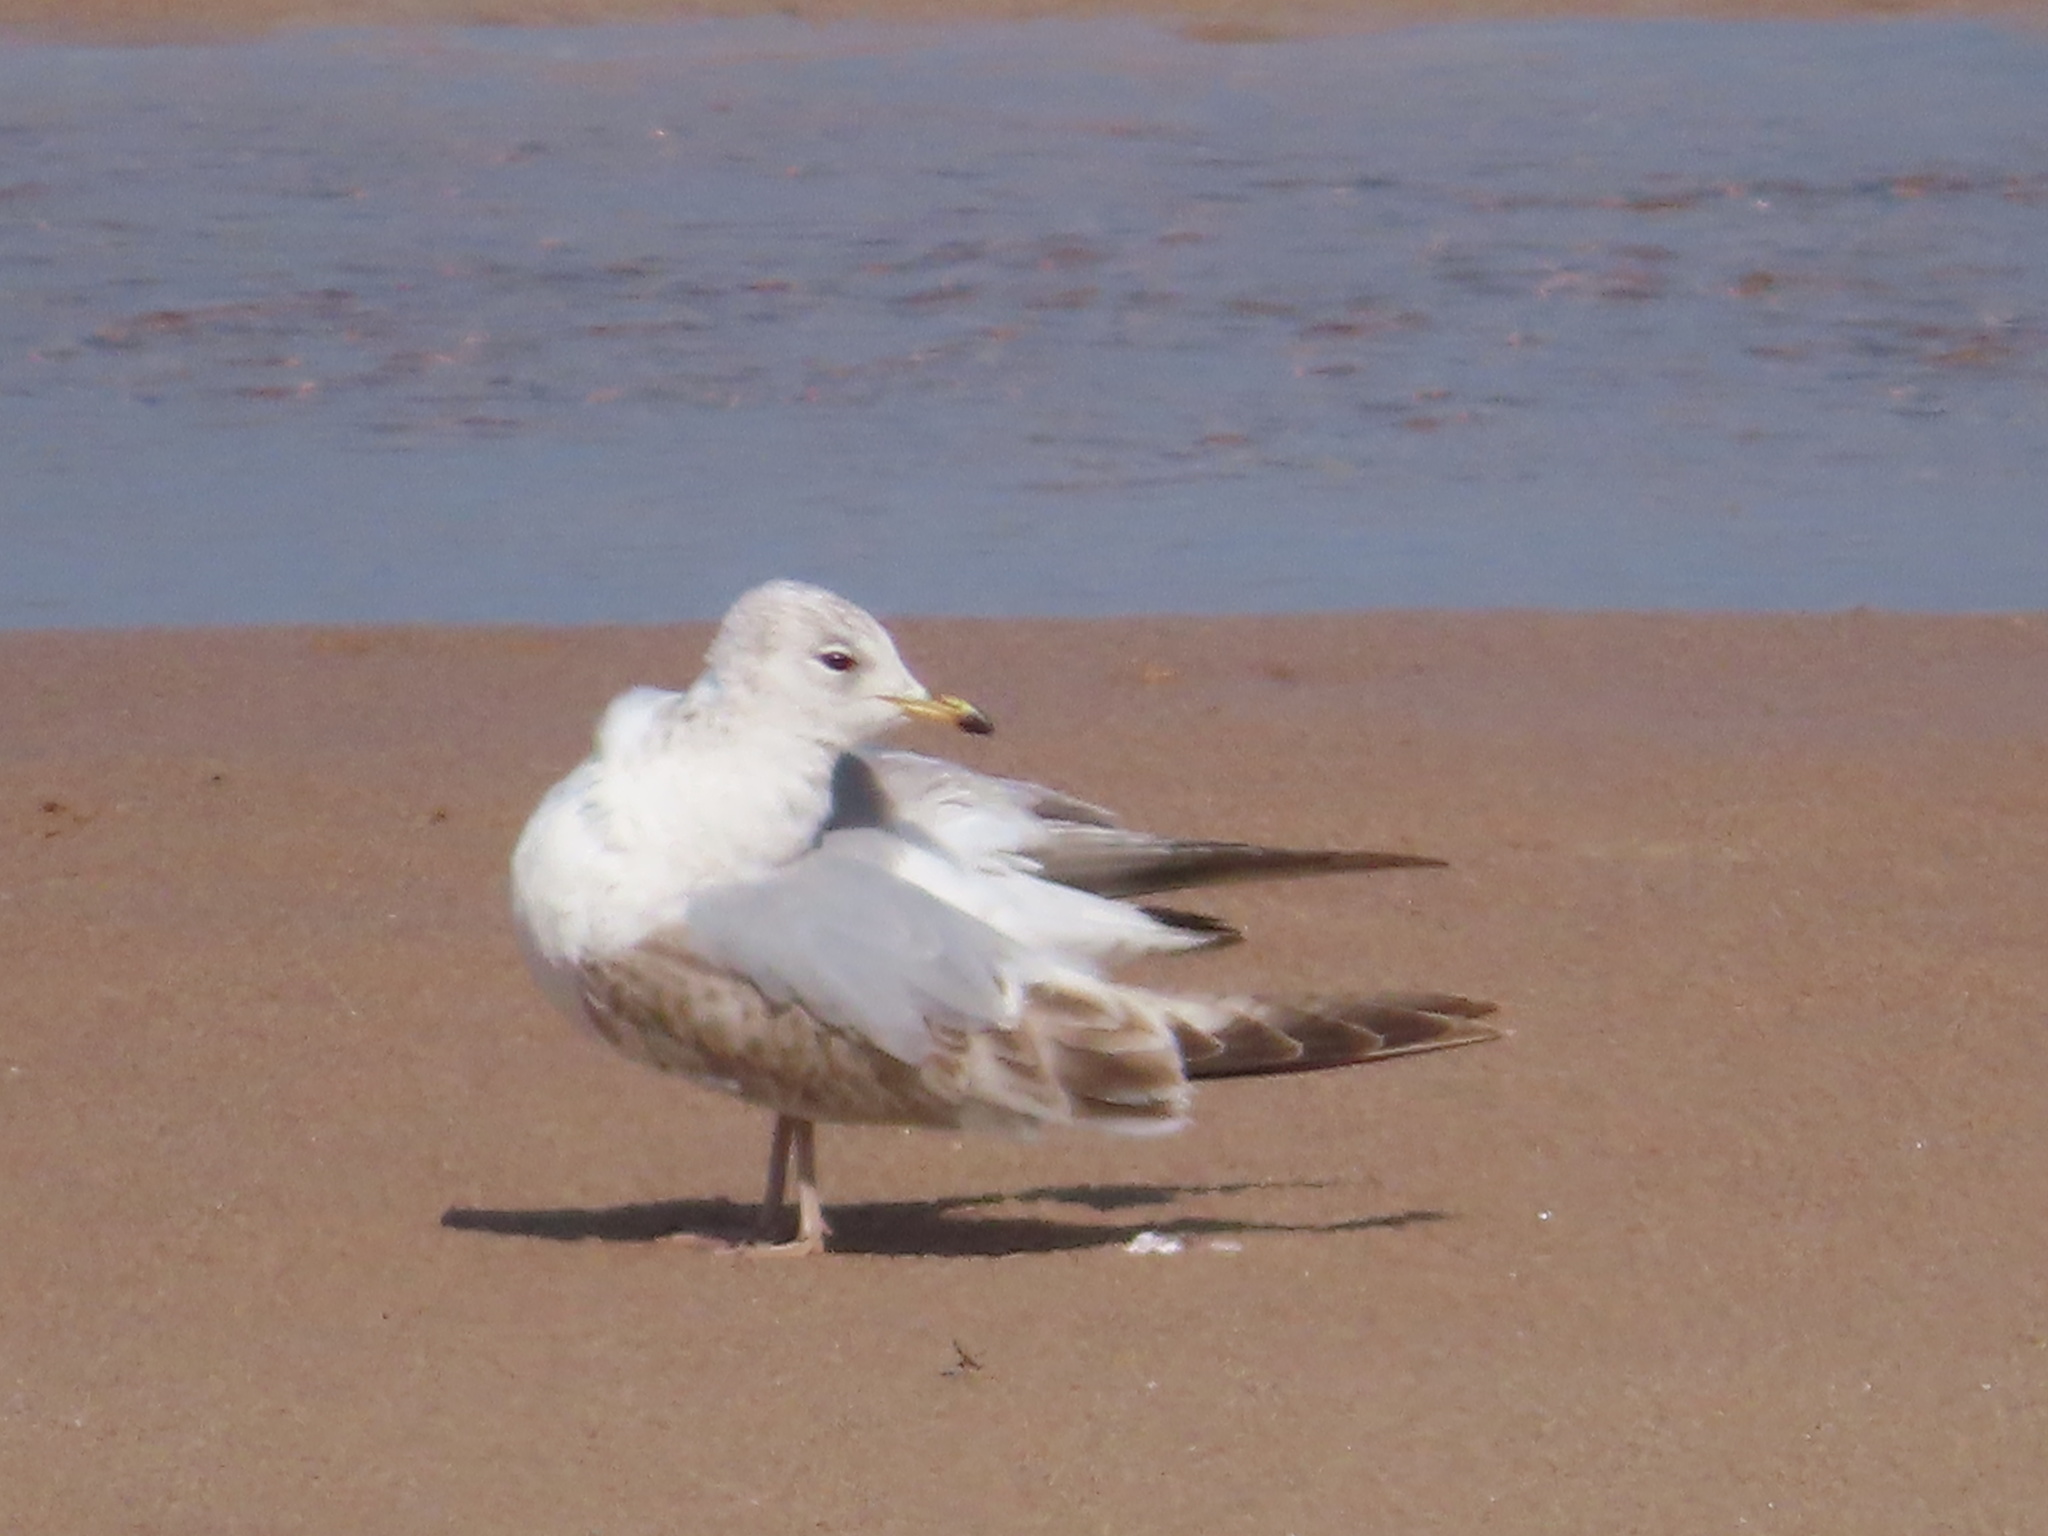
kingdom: Animalia
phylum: Chordata
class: Aves
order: Charadriiformes
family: Laridae
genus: Larus
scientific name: Larus canus
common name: Mew gull
